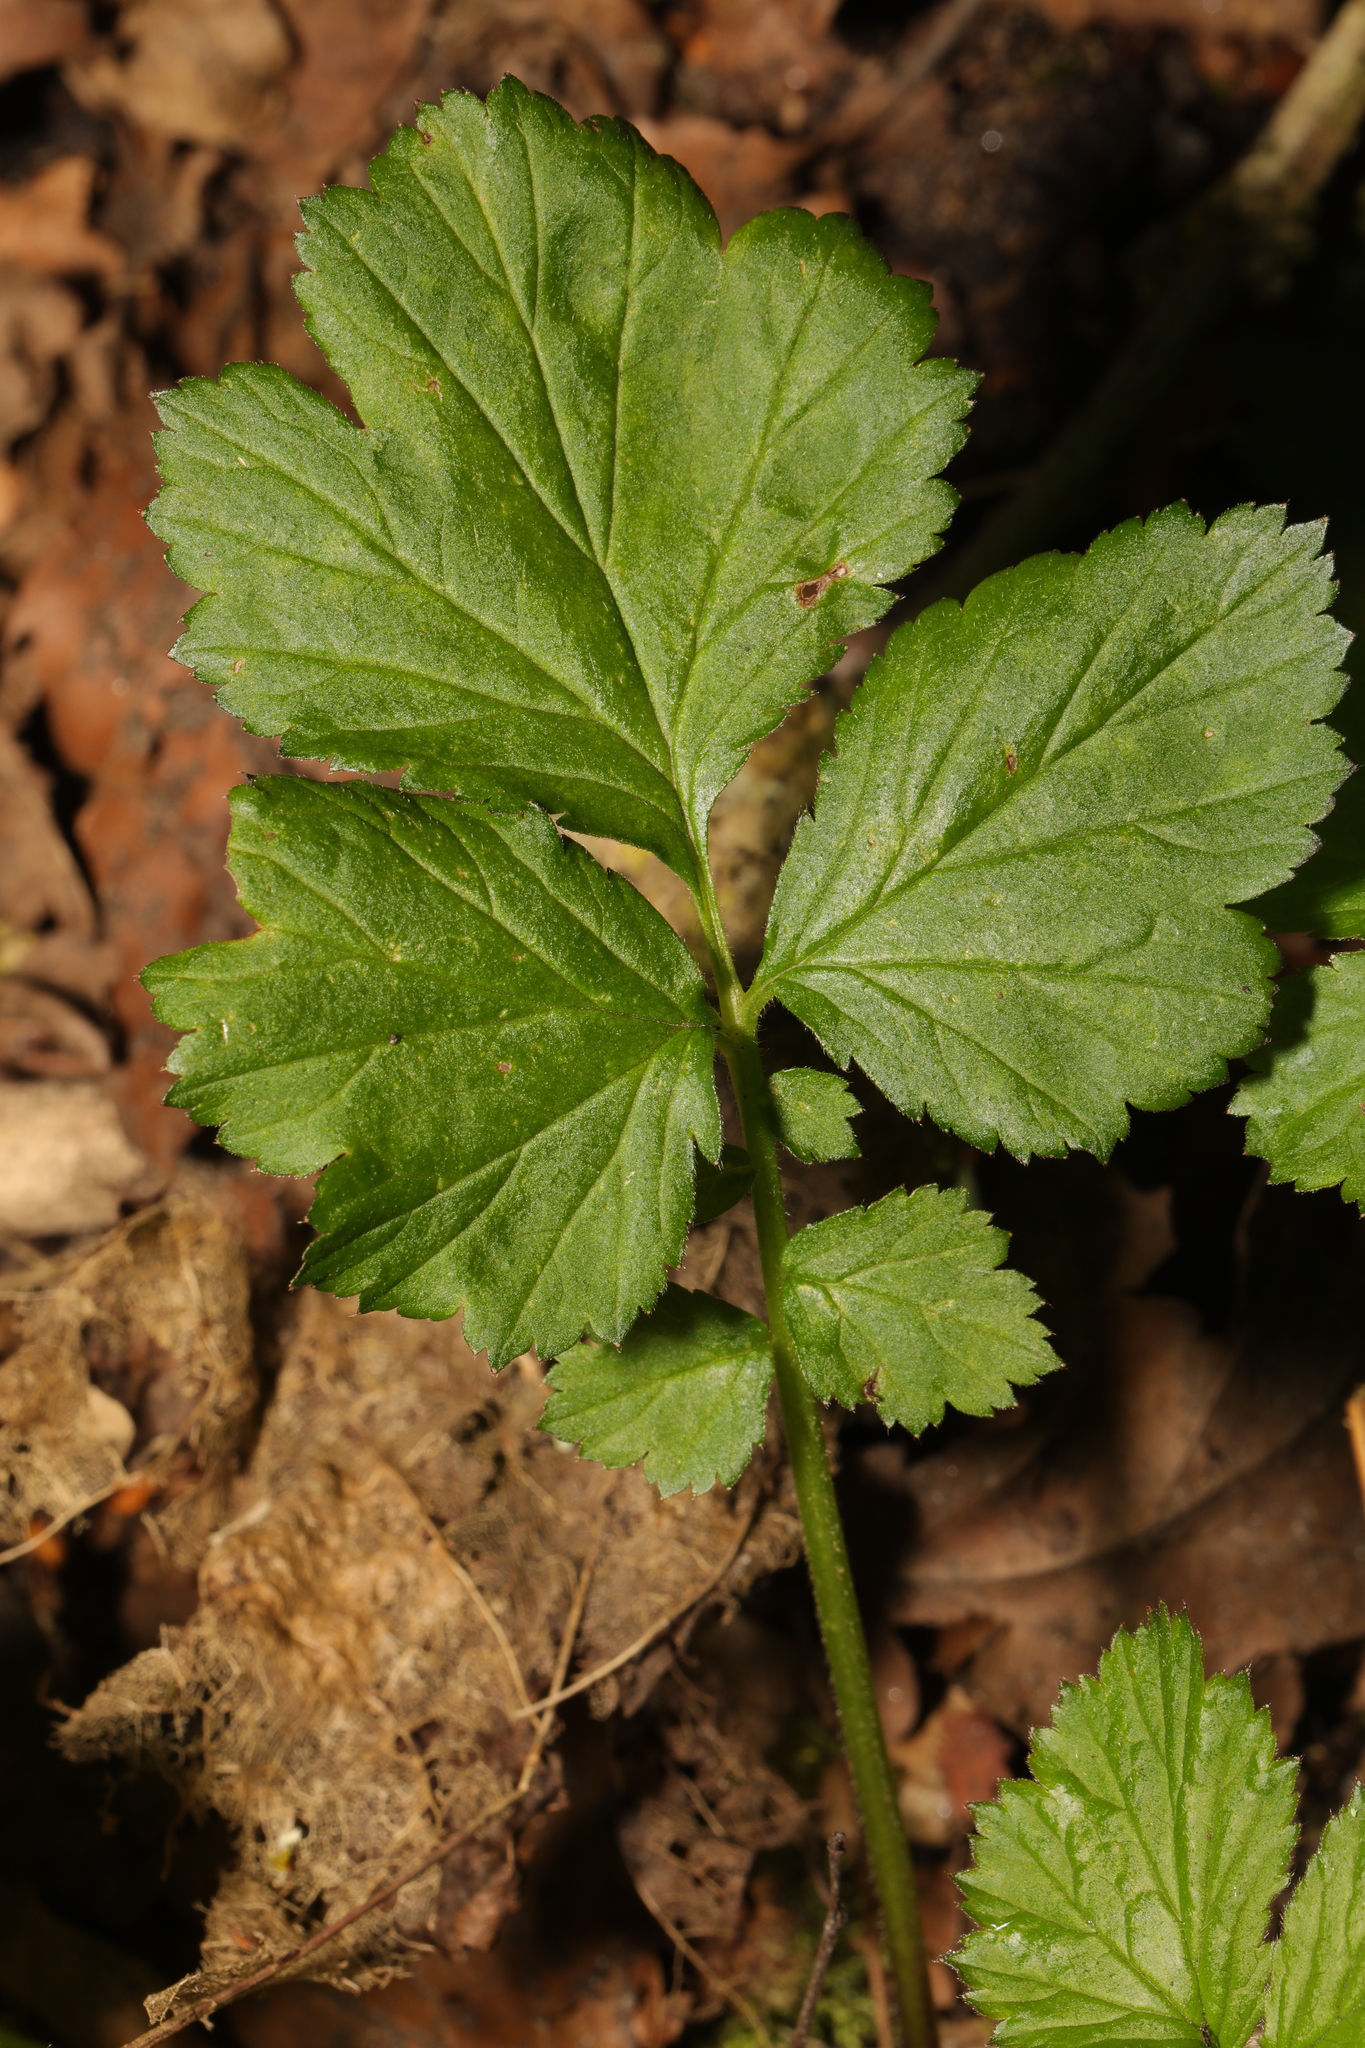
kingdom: Plantae
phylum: Tracheophyta
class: Magnoliopsida
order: Rosales
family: Rosaceae
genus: Geum
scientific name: Geum urbanum
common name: Wood avens
